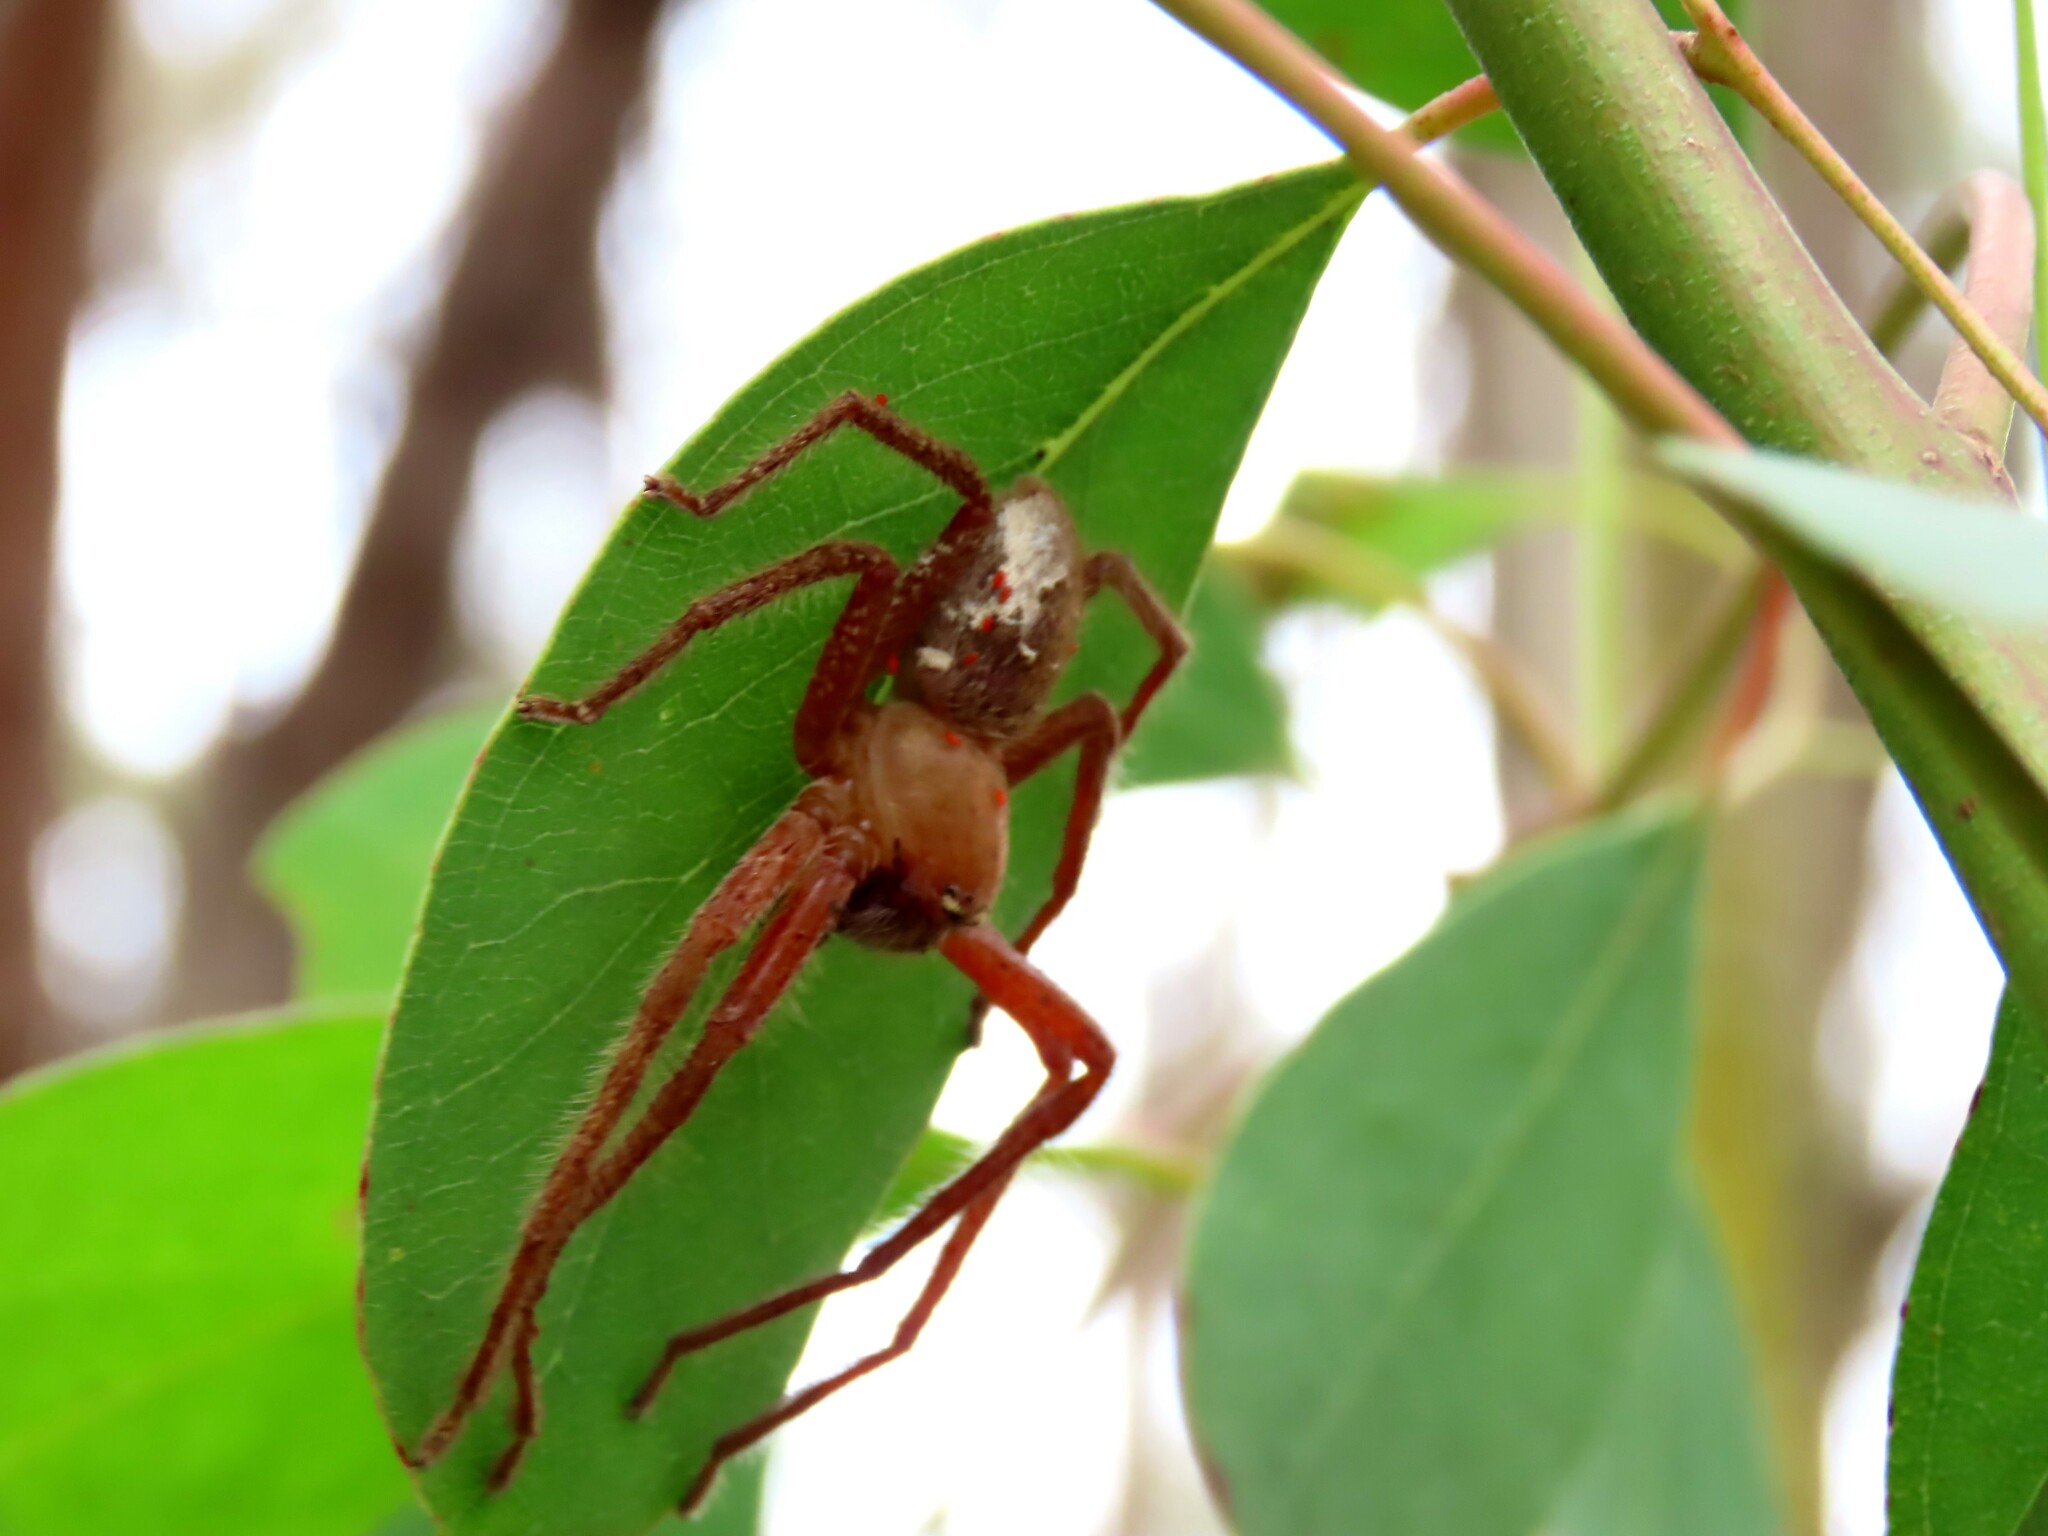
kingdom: Animalia
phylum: Arthropoda
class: Arachnida
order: Araneae
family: Sparassidae
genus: Neosparassus
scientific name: Neosparassus diana
